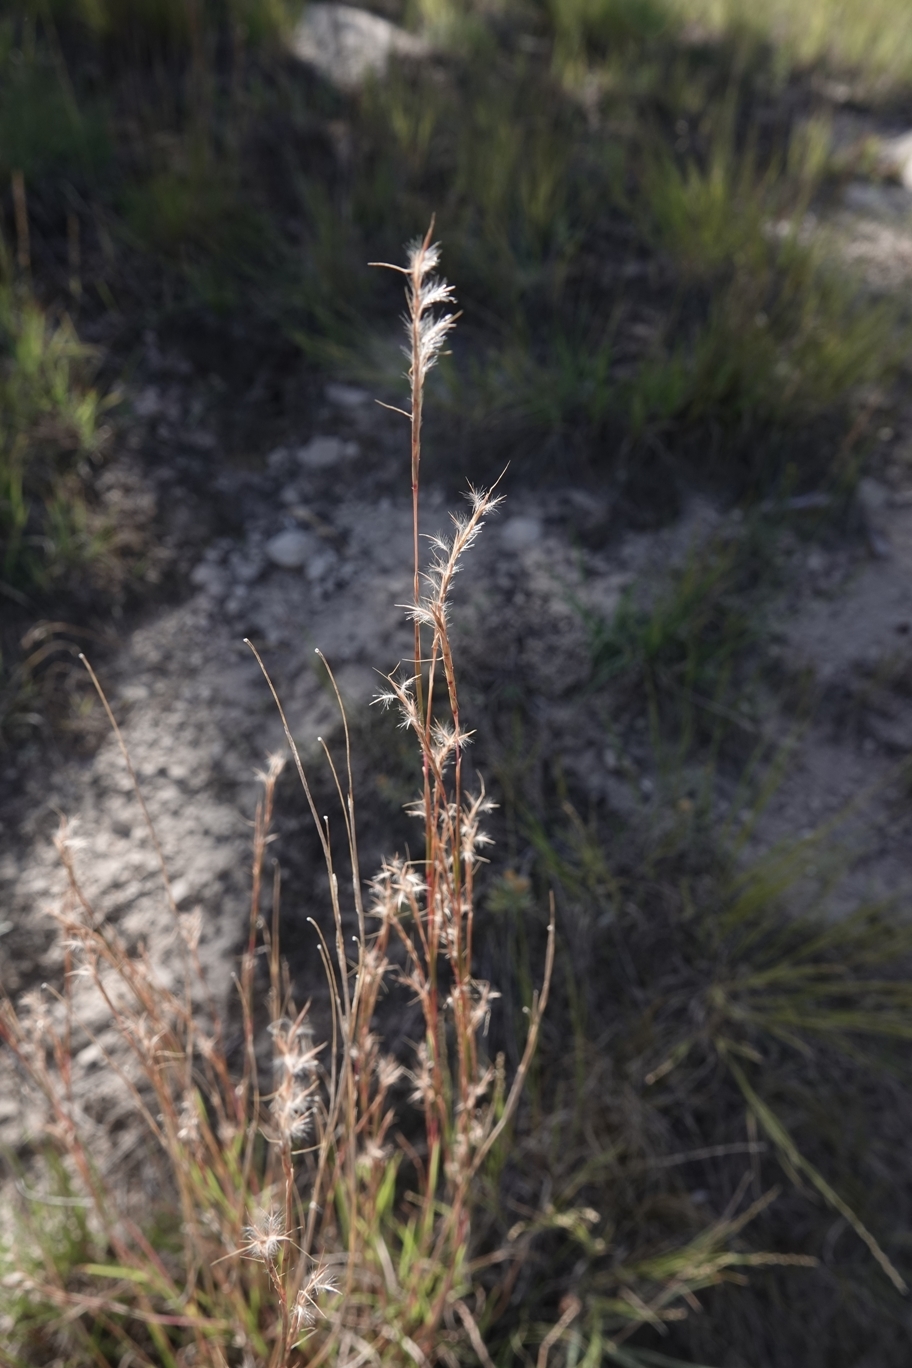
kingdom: Plantae
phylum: Tracheophyta
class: Liliopsida
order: Poales
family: Poaceae
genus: Schizachyrium
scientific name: Schizachyrium scoparium
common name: Little bluestem
